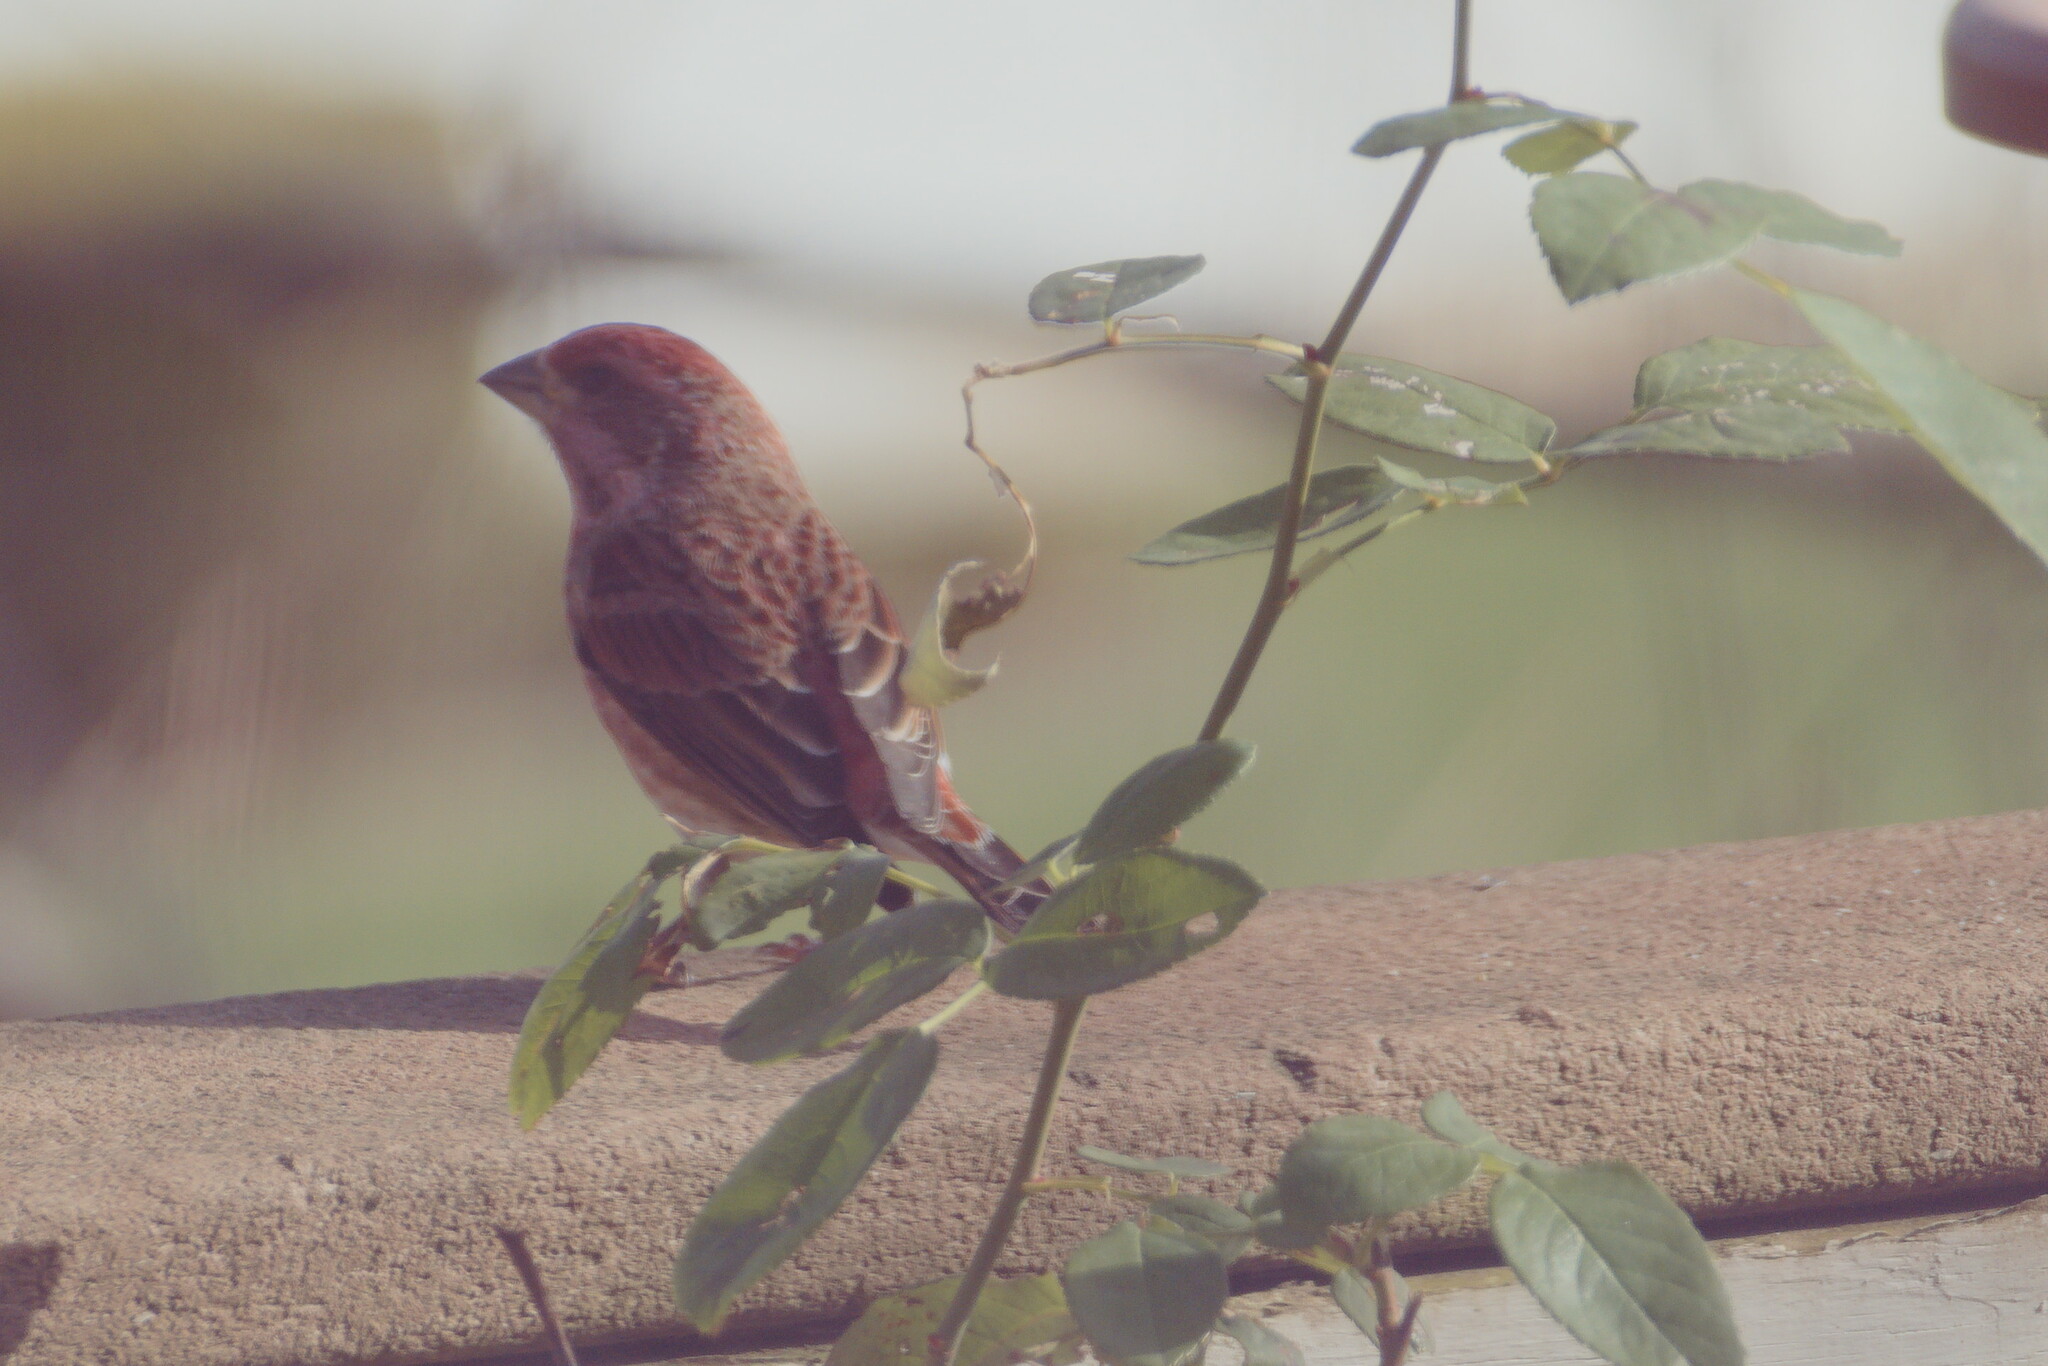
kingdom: Animalia
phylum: Chordata
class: Aves
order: Passeriformes
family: Fringillidae
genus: Haemorhous
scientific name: Haemorhous purpureus
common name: Purple finch
